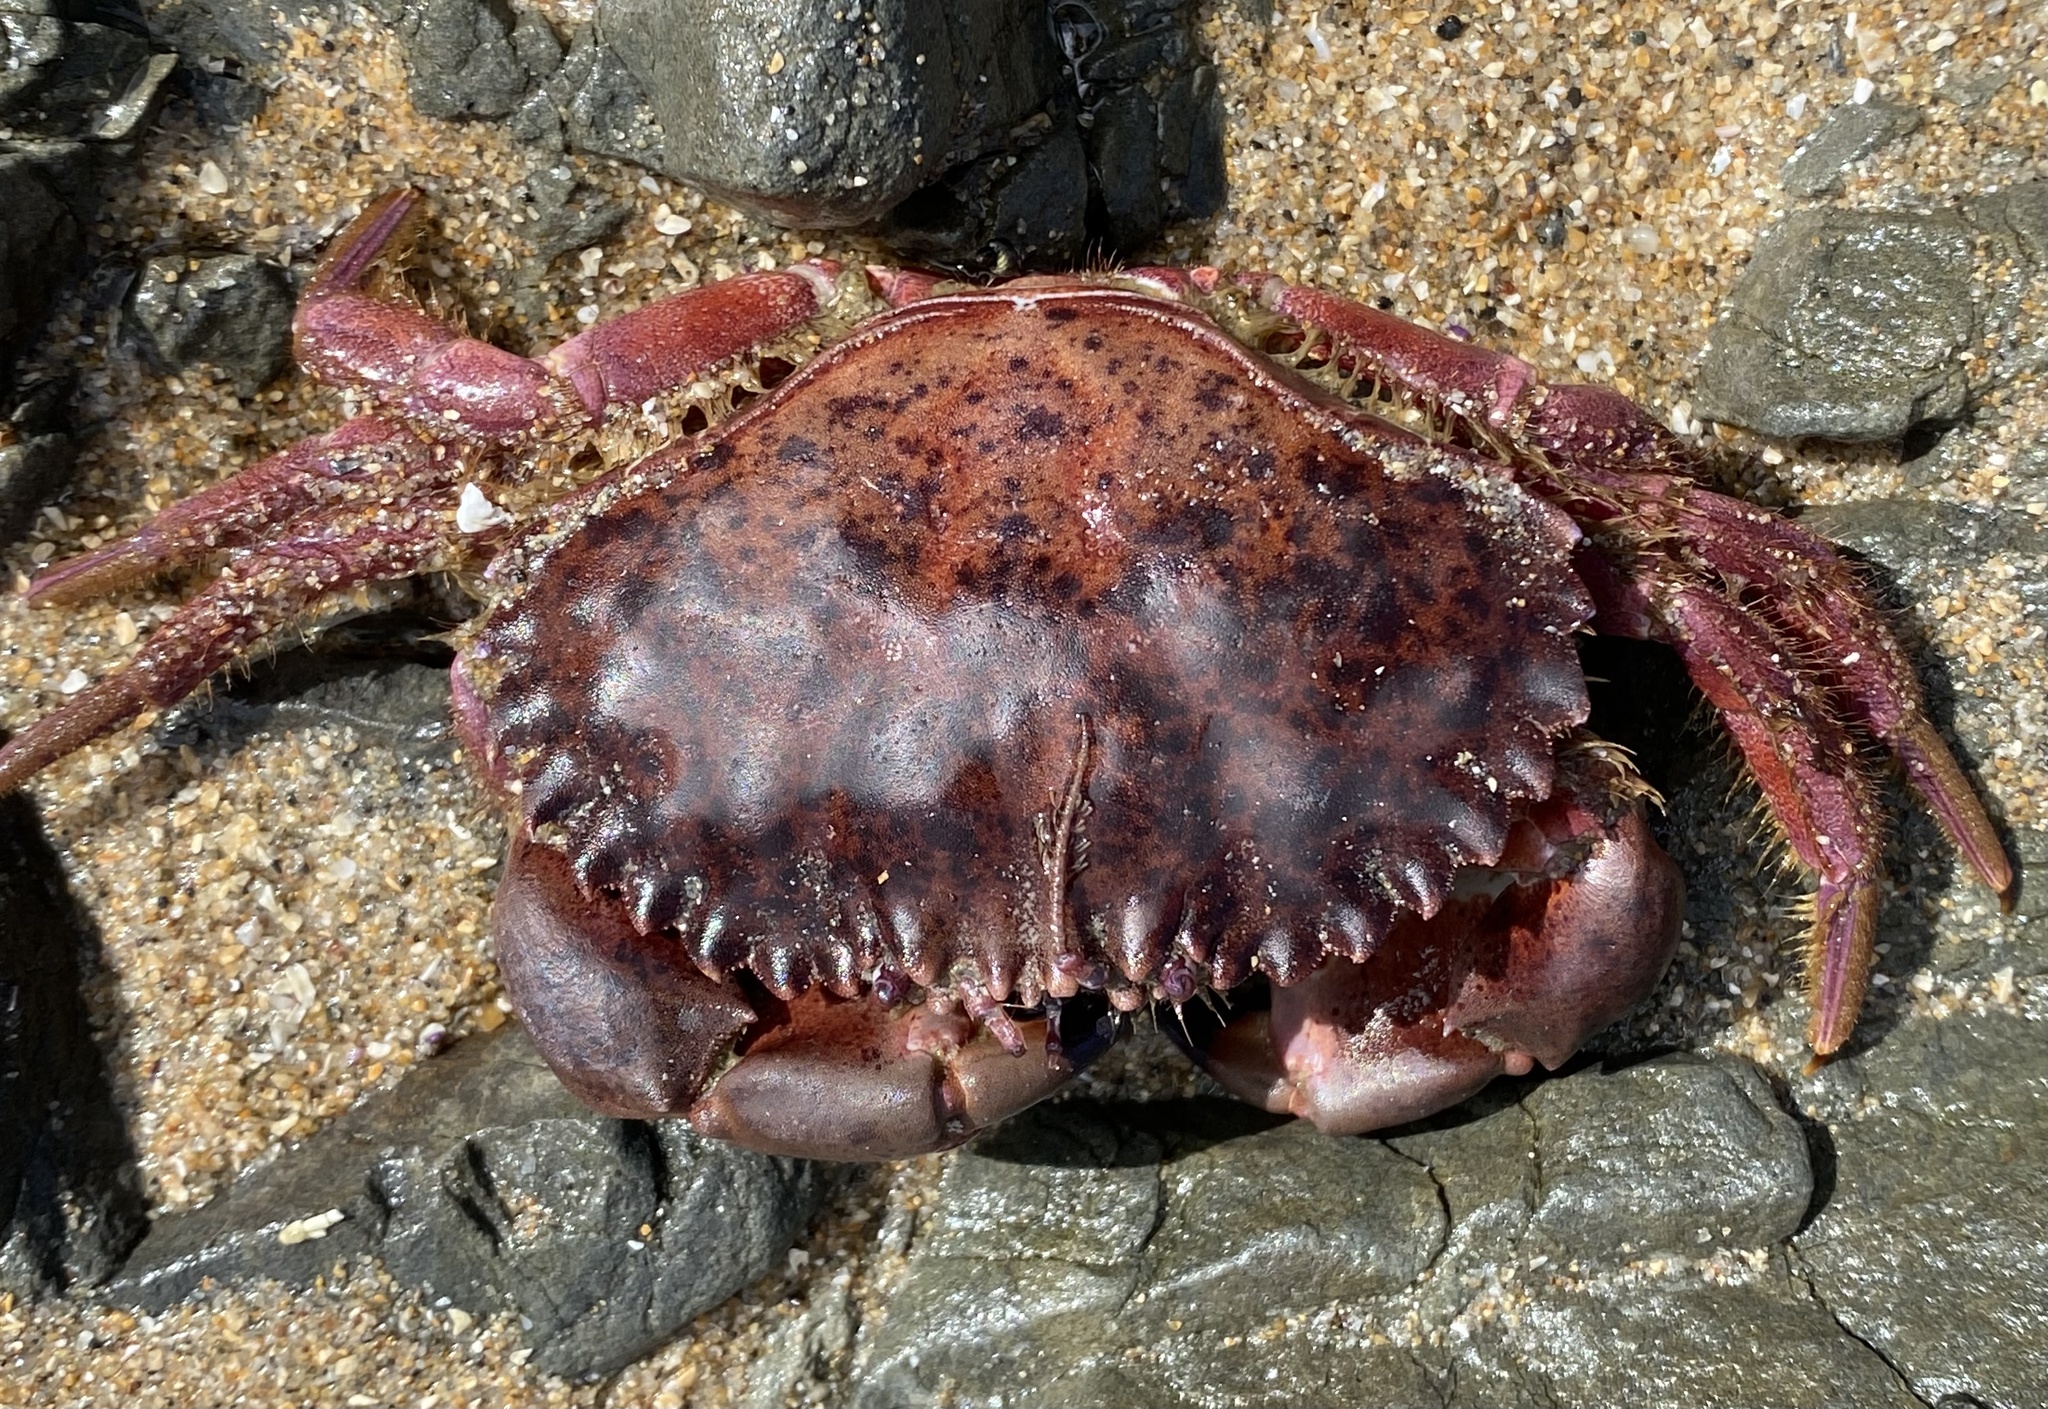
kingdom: Animalia
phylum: Arthropoda
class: Malacostraca
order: Decapoda
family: Cancridae
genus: Romaleon
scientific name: Romaleon antennarium
